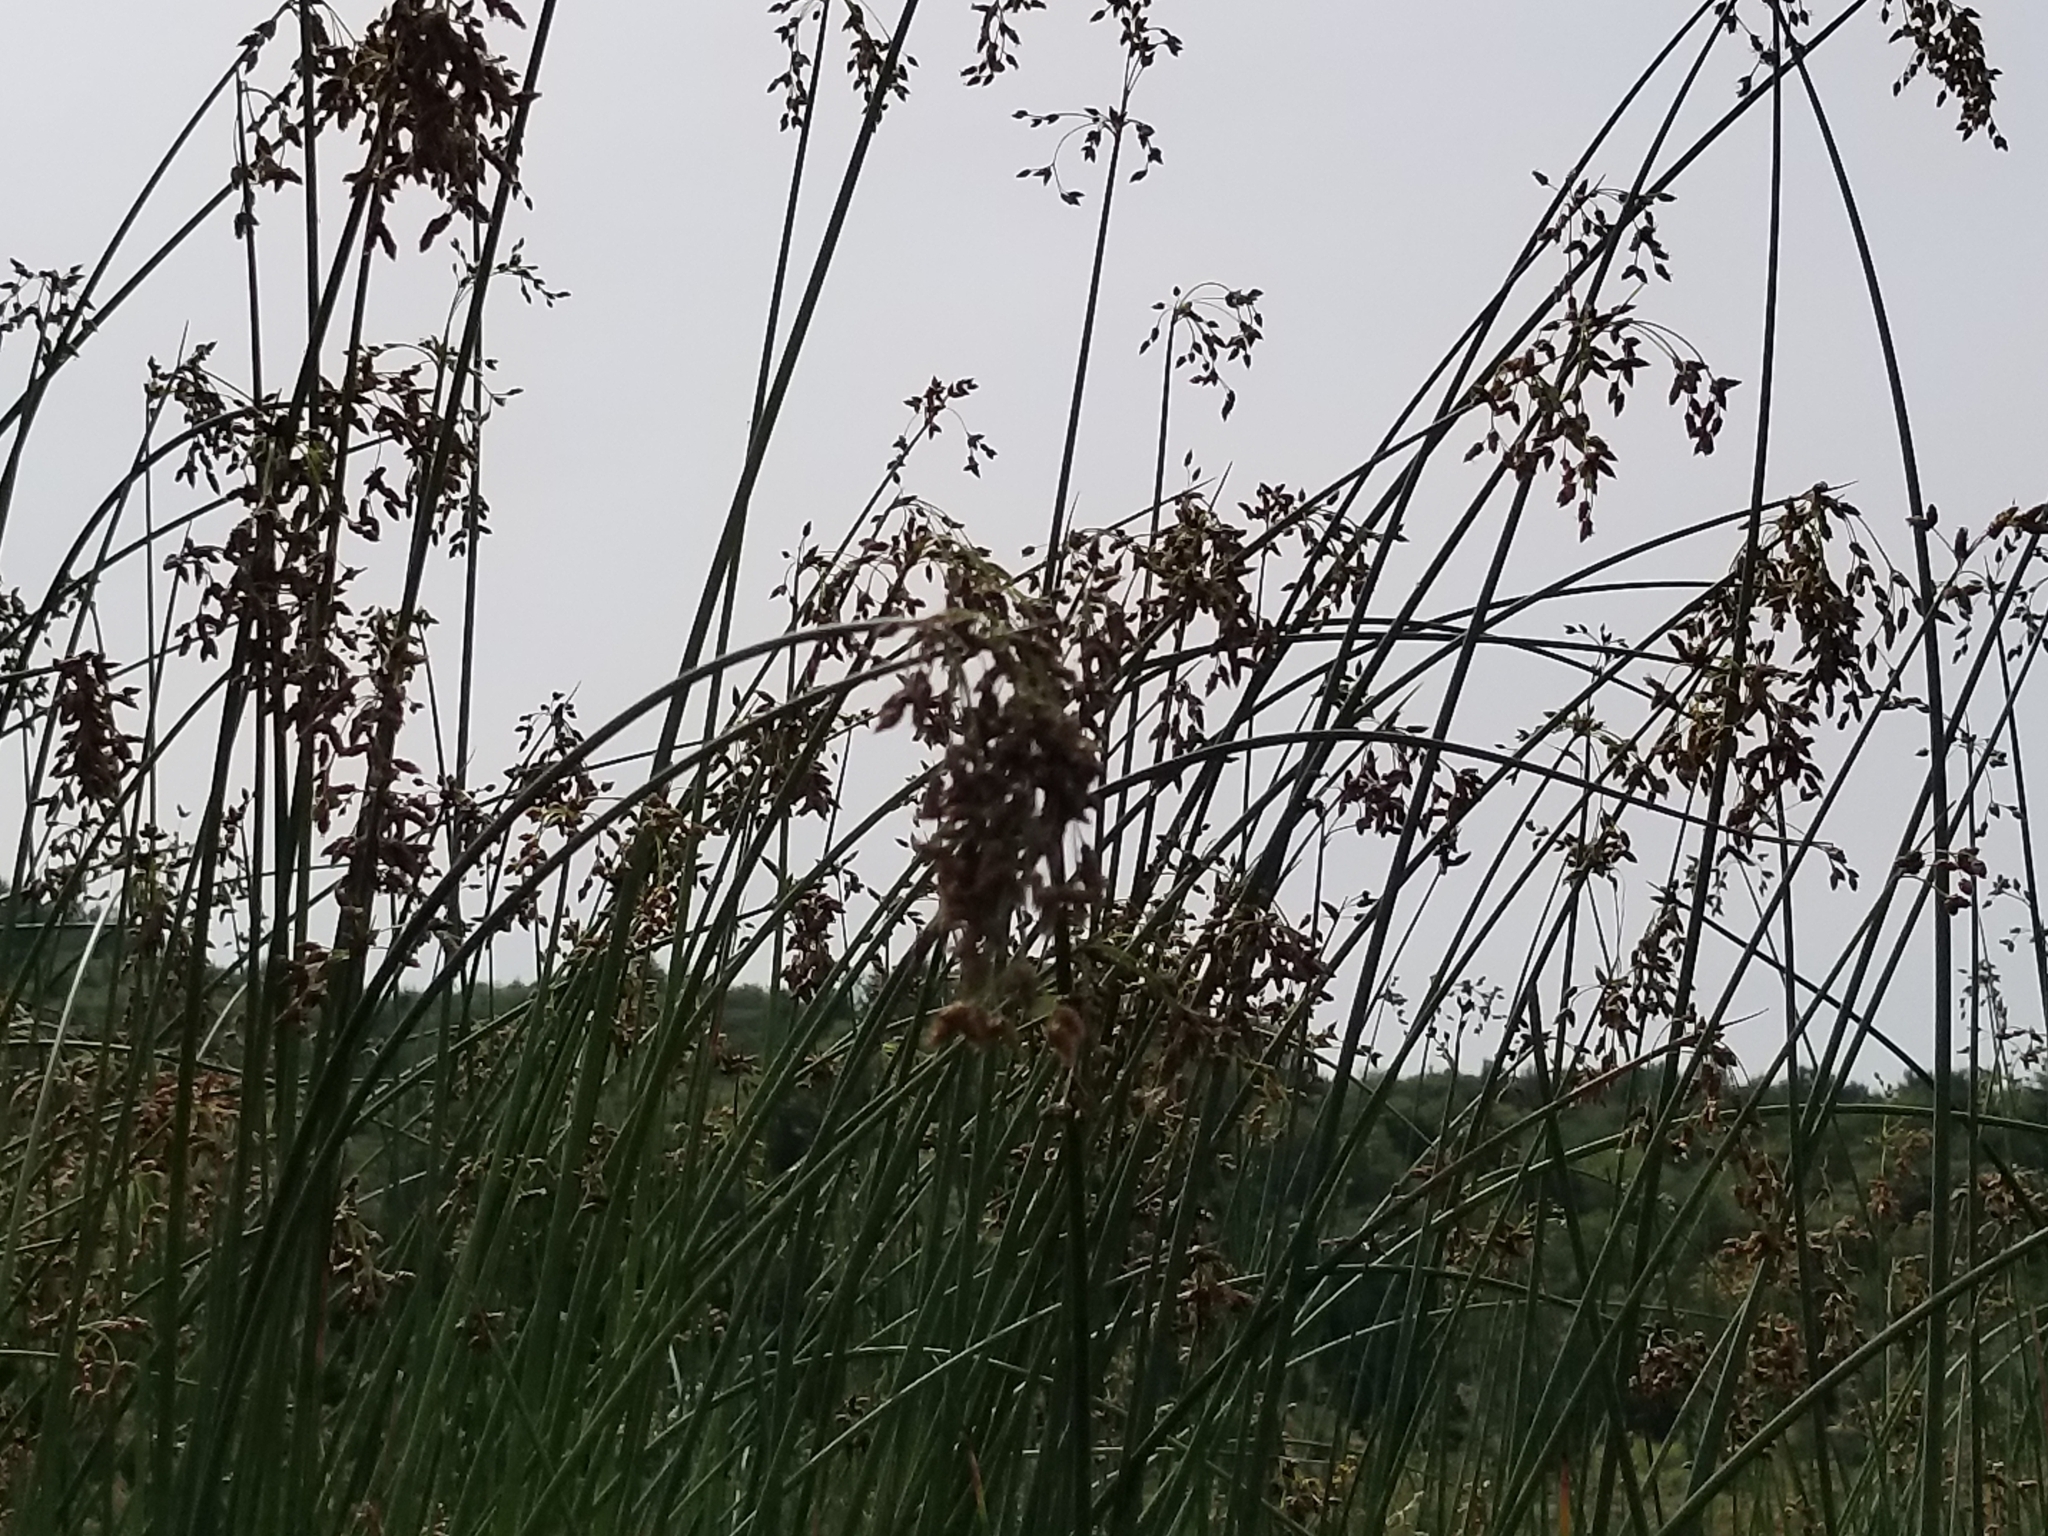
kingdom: Plantae
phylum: Tracheophyta
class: Liliopsida
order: Poales
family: Cyperaceae
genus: Schoenoplectus
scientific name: Schoenoplectus tabernaemontani
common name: Grey club-rush
